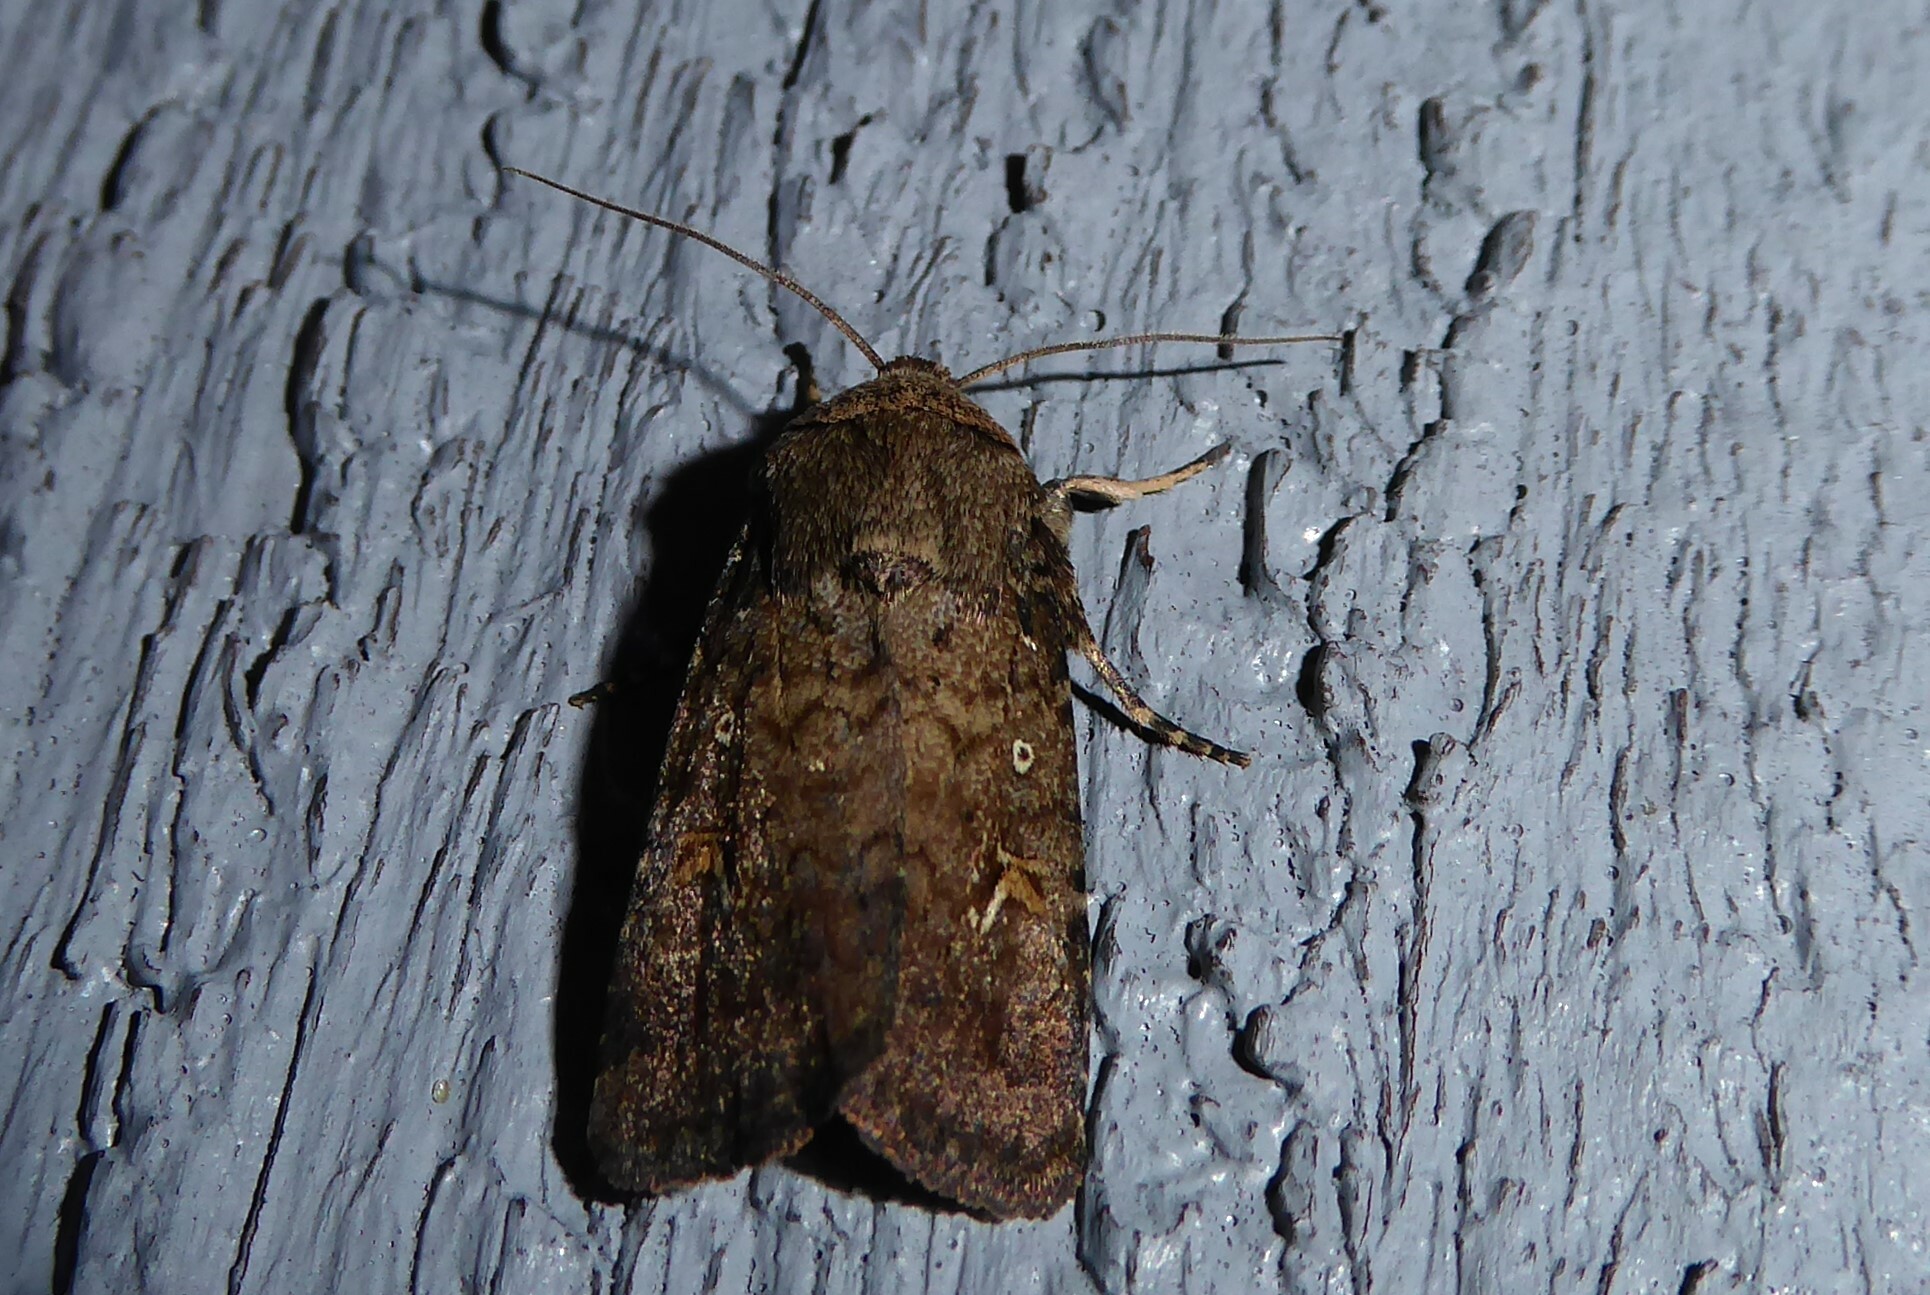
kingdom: Animalia
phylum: Arthropoda
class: Insecta
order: Lepidoptera
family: Noctuidae
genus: Proteuxoa
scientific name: Proteuxoa tetronycha
